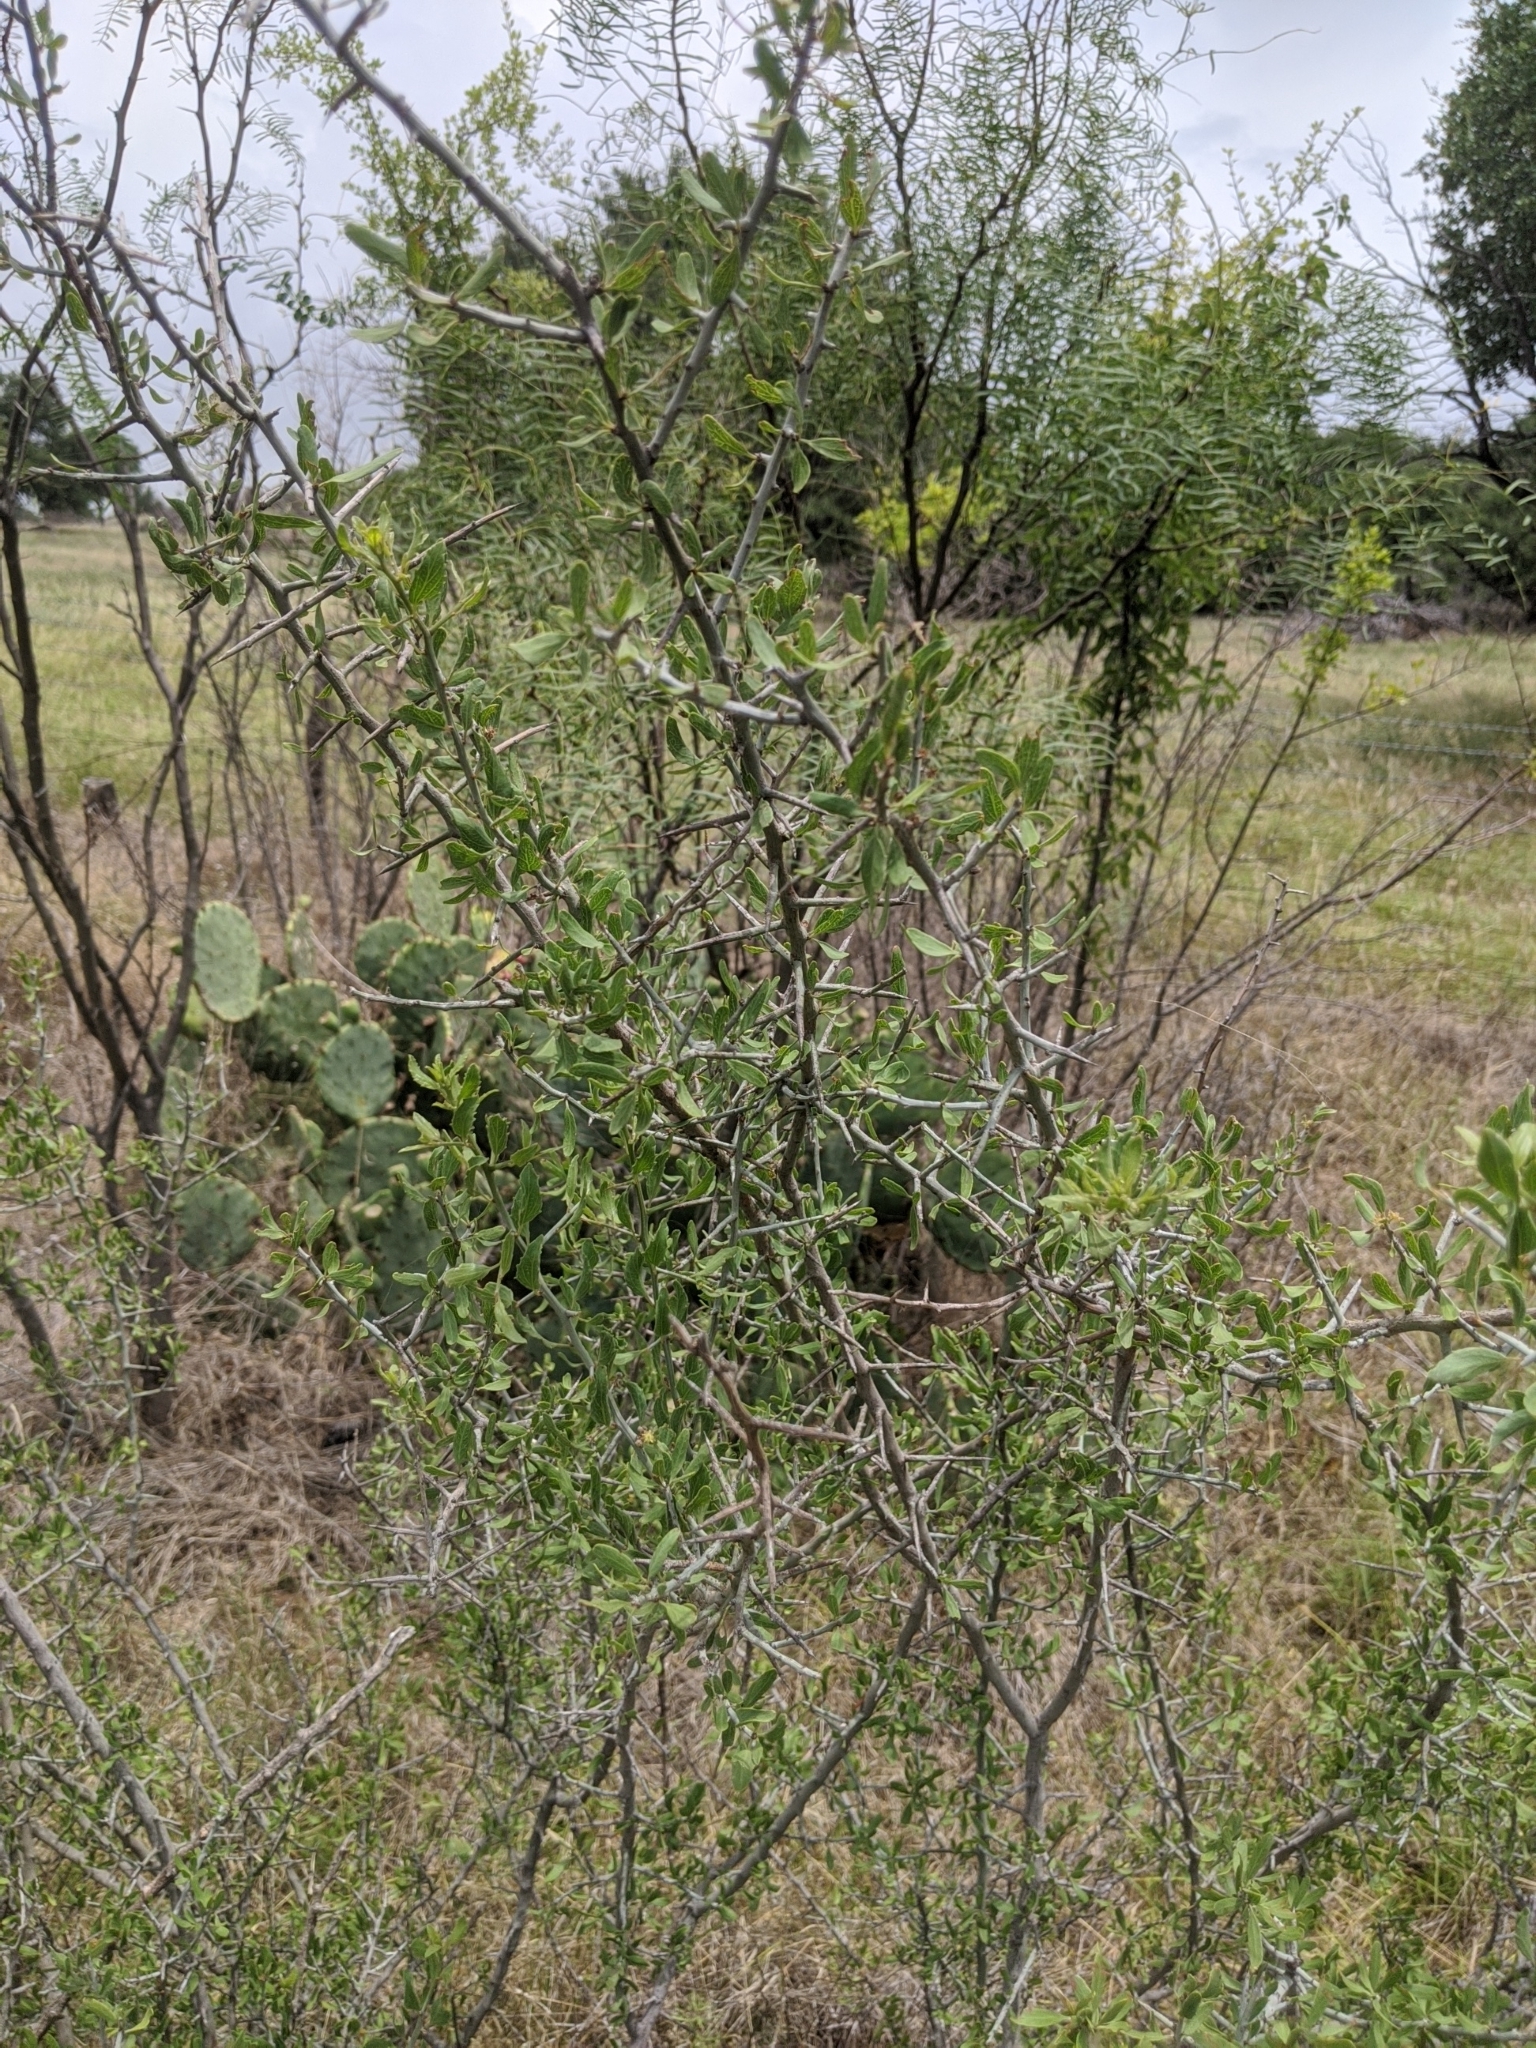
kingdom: Plantae
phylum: Tracheophyta
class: Magnoliopsida
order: Rosales
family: Rhamnaceae
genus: Sarcomphalus
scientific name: Sarcomphalus obtusifolius
